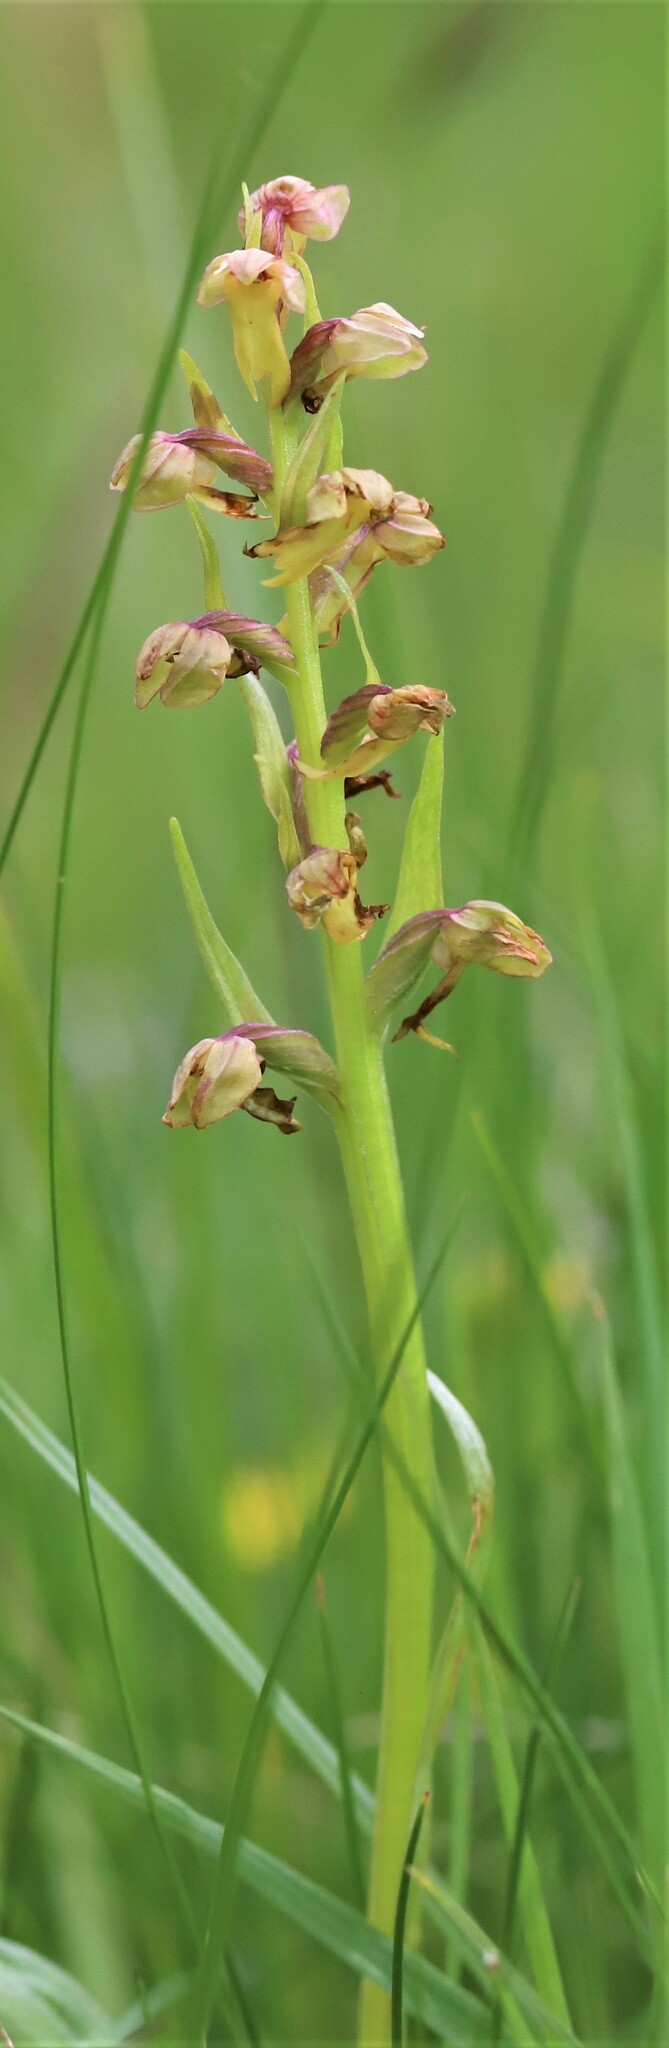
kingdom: Plantae
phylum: Tracheophyta
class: Liliopsida
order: Asparagales
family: Orchidaceae
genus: Dactylorhiza
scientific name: Dactylorhiza viridis
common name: Longbract frog orchid
